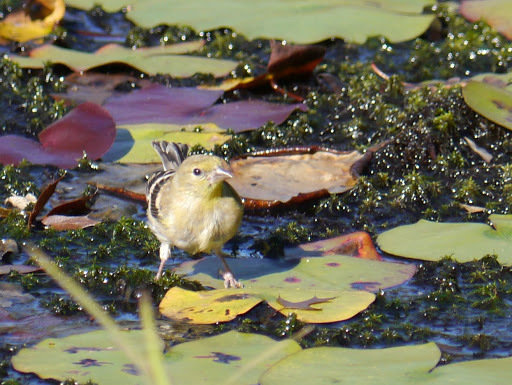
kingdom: Animalia
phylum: Chordata
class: Aves
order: Passeriformes
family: Fringillidae
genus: Spinus
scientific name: Spinus tristis
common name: American goldfinch
